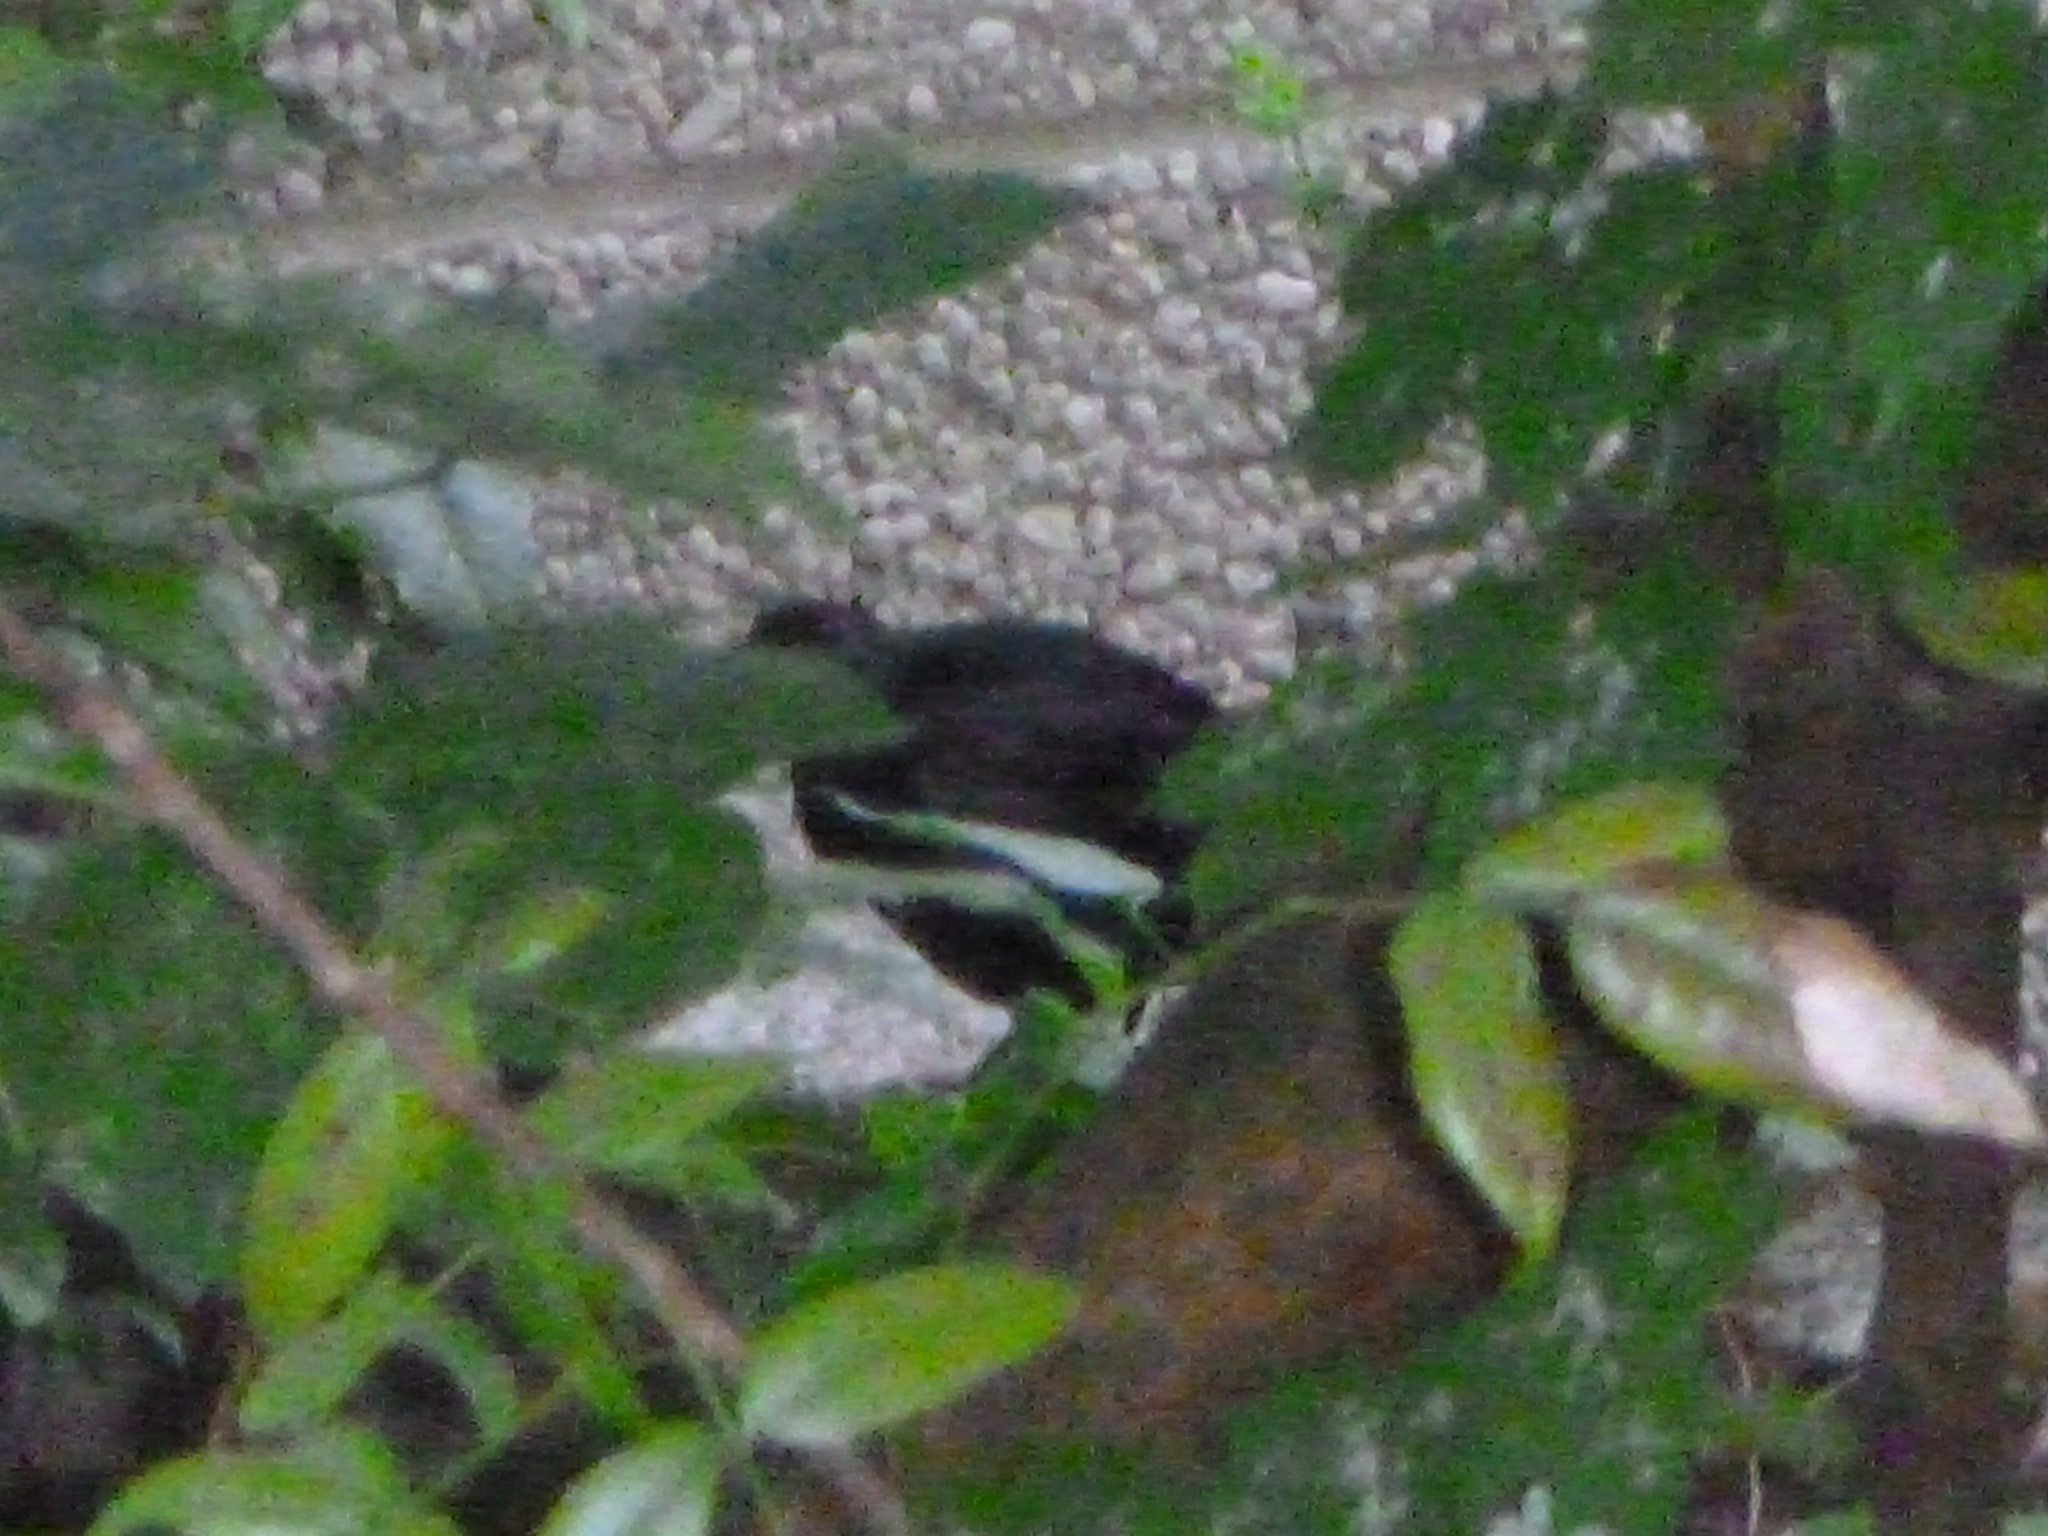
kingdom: Animalia
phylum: Chordata
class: Aves
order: Passeriformes
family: Turdidae
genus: Turdus
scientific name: Turdus merula
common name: Common blackbird
